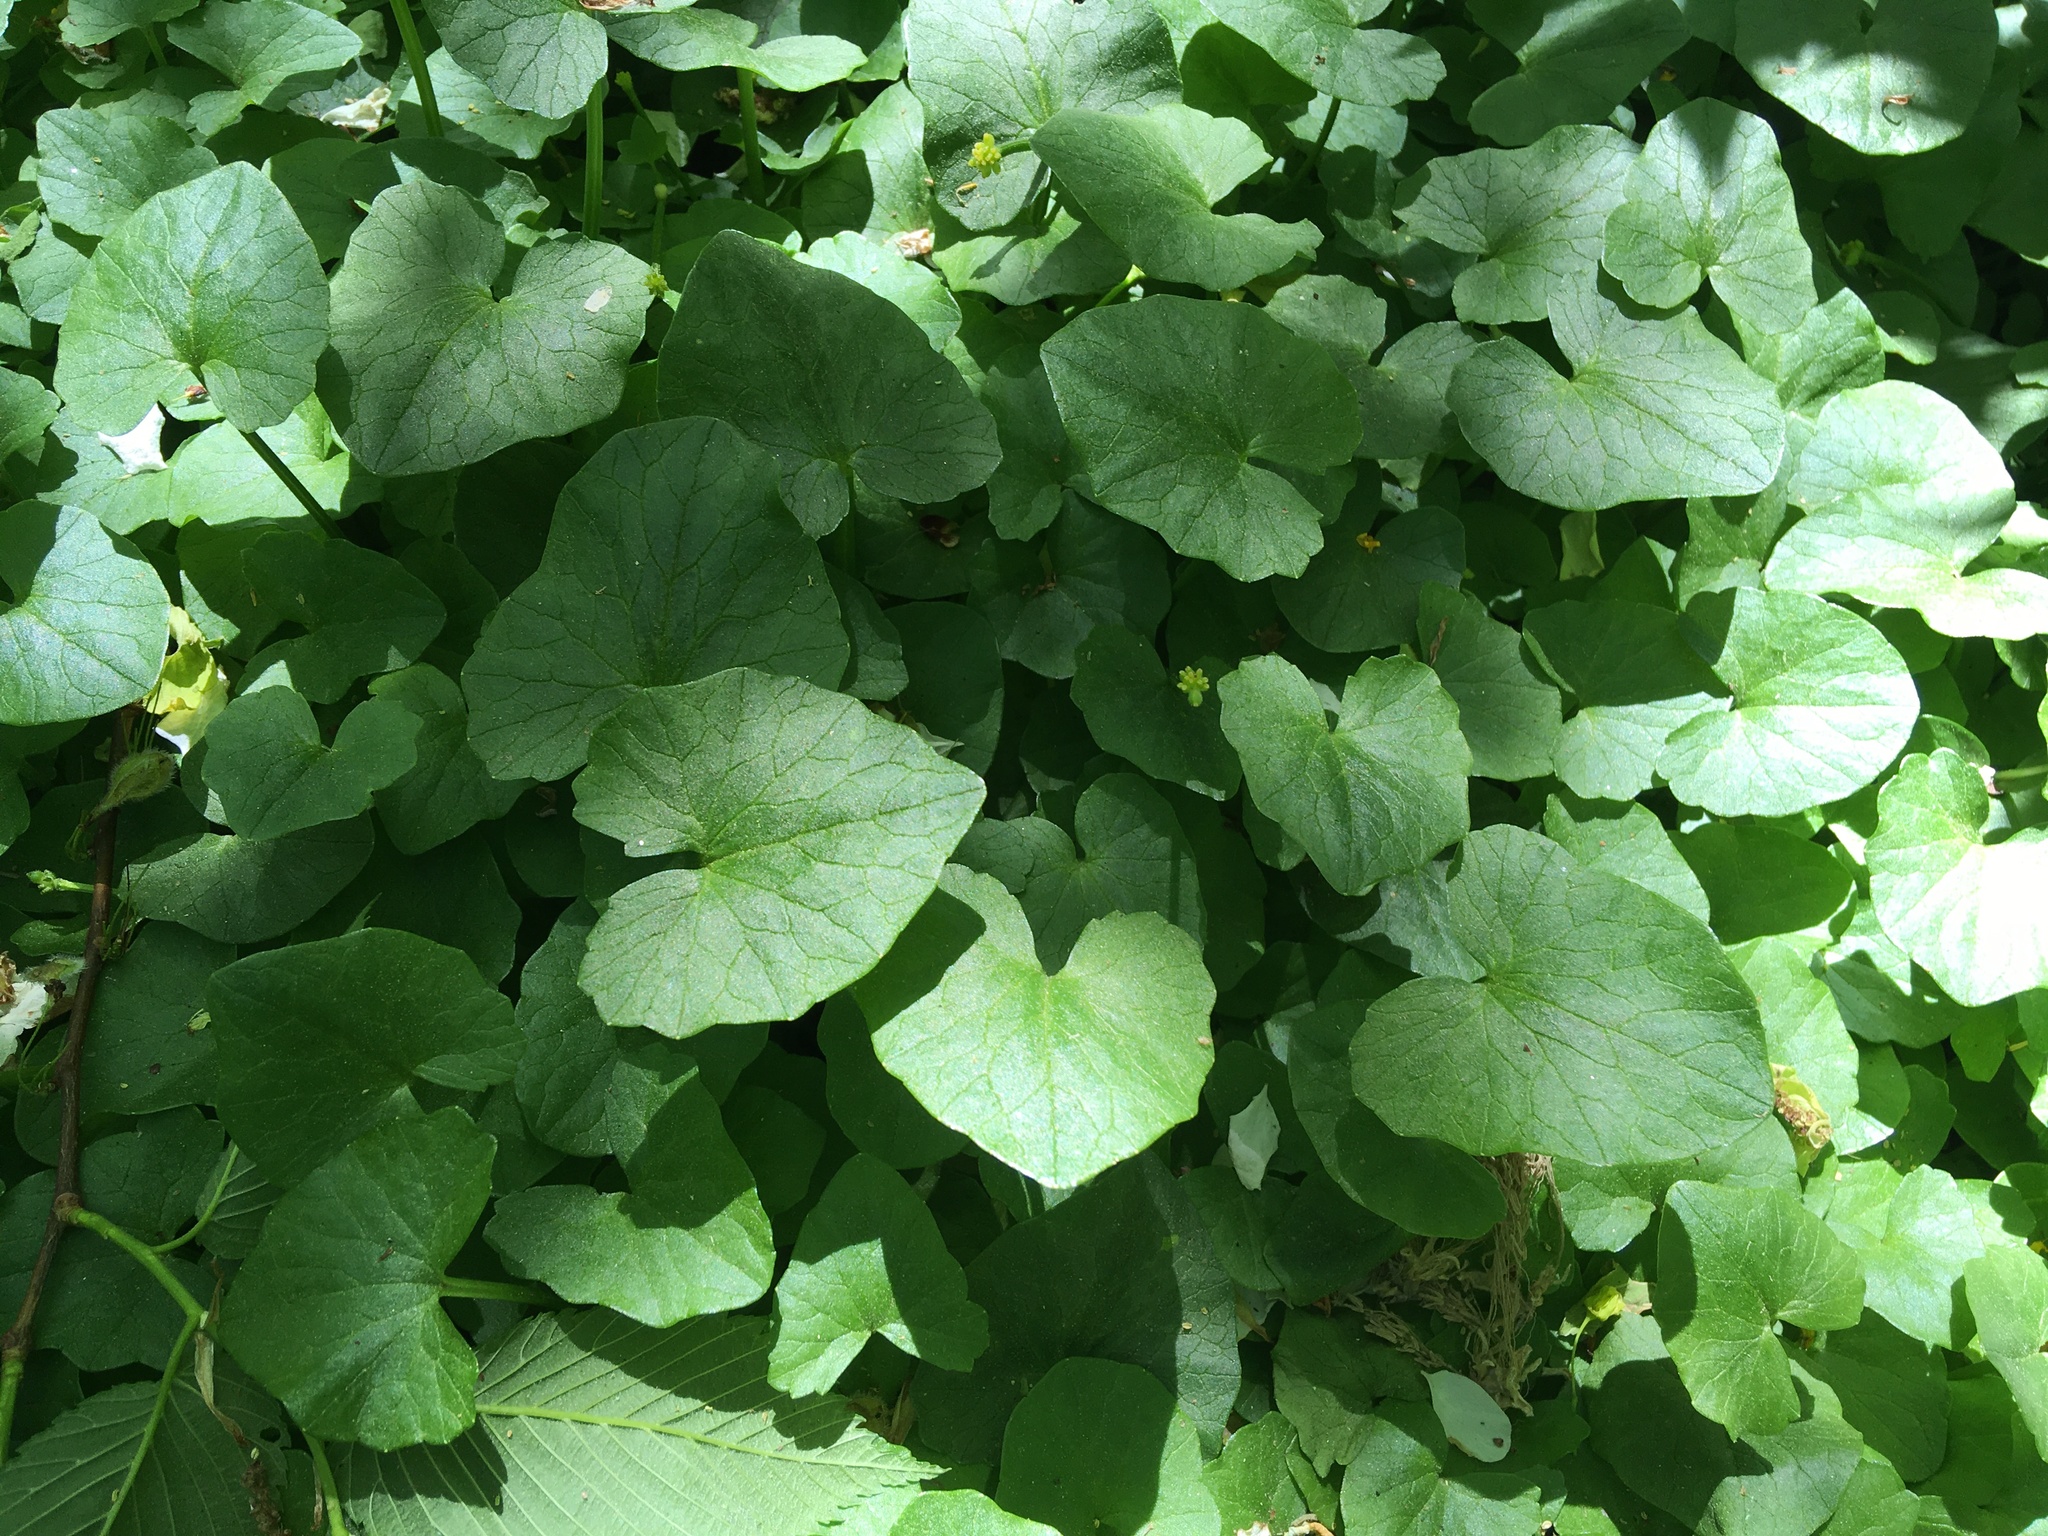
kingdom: Plantae
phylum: Tracheophyta
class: Magnoliopsida
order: Ranunculales
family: Ranunculaceae
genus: Ficaria
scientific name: Ficaria verna
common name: Lesser celandine
